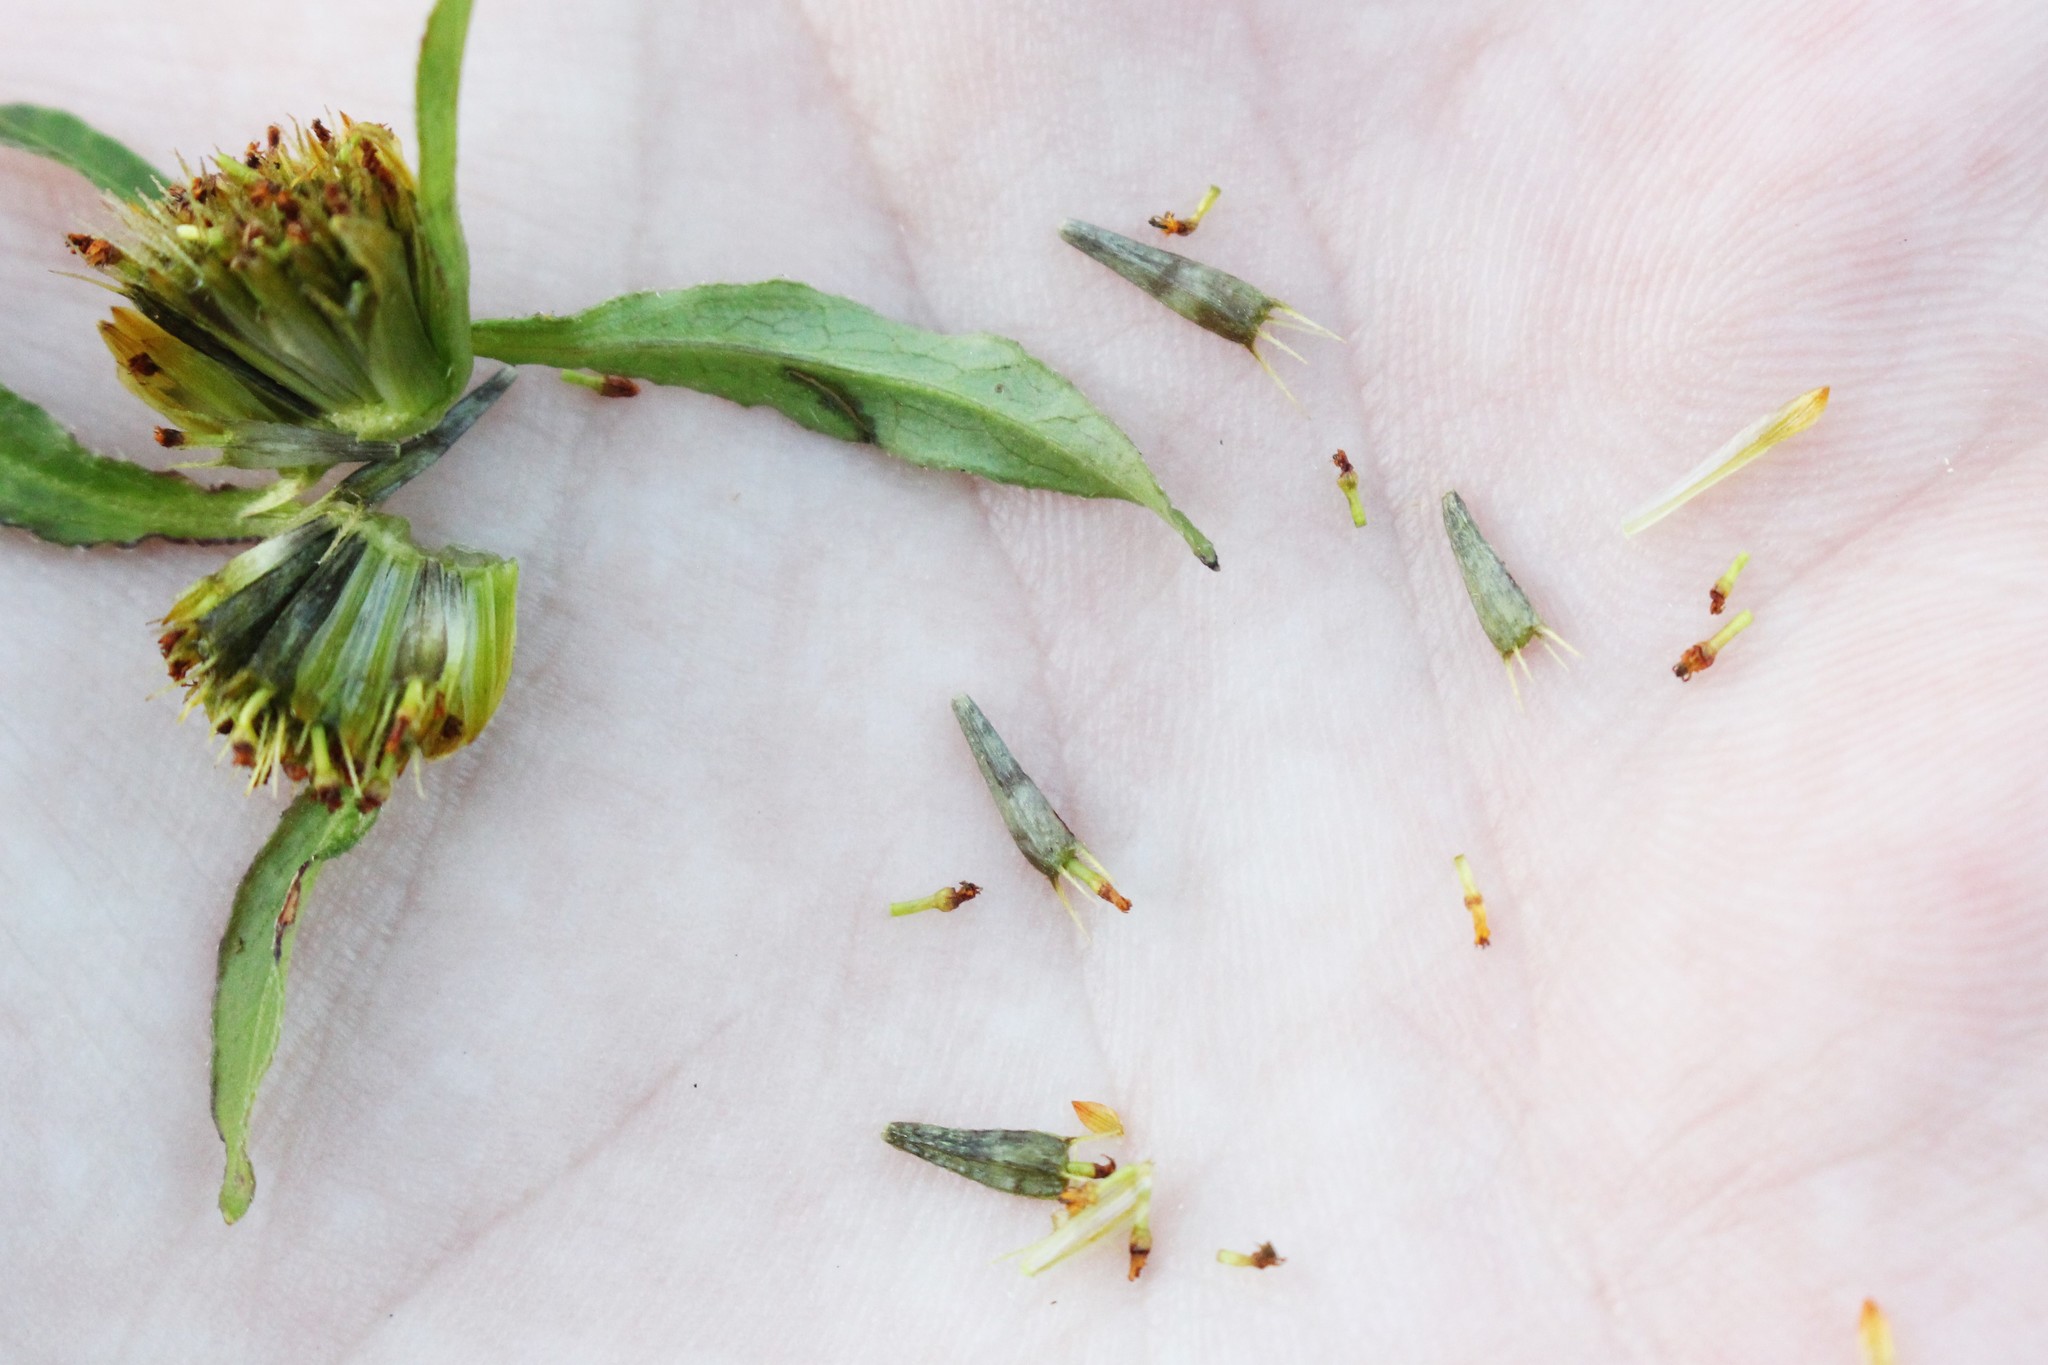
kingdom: Plantae
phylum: Tracheophyta
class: Magnoliopsida
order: Asterales
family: Asteraceae
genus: Bidens
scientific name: Bidens connata
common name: London bur-marigold
